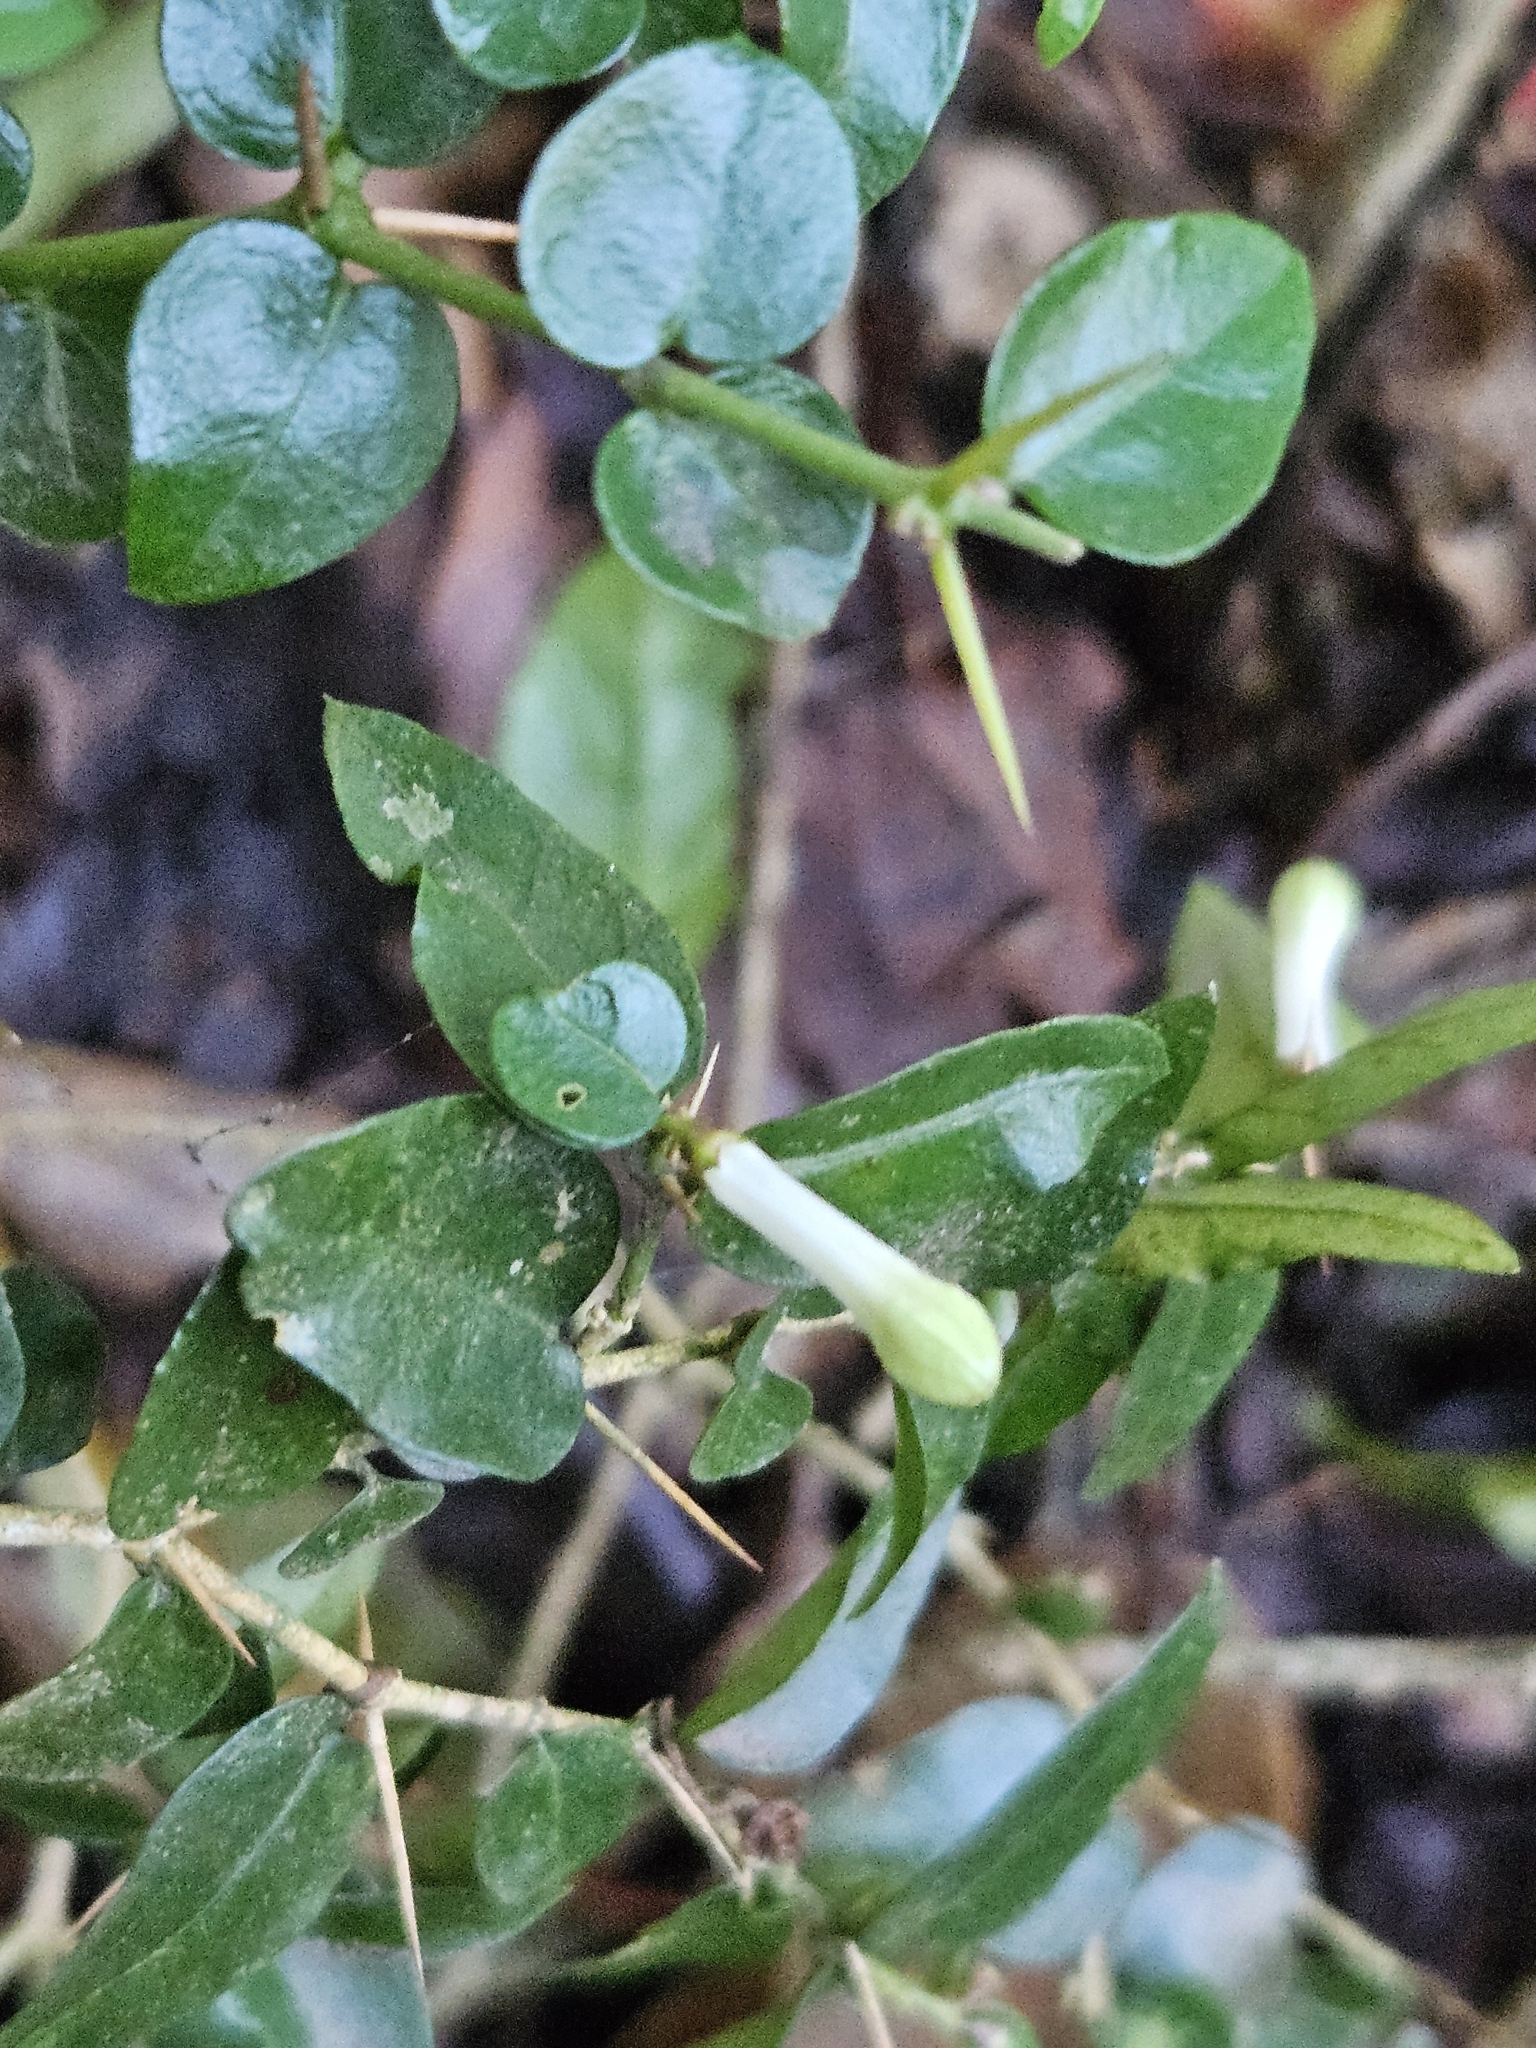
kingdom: Plantae
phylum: Tracheophyta
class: Magnoliopsida
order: Gentianales
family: Rubiaceae
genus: Damnacanthus
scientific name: Damnacanthus indicus
